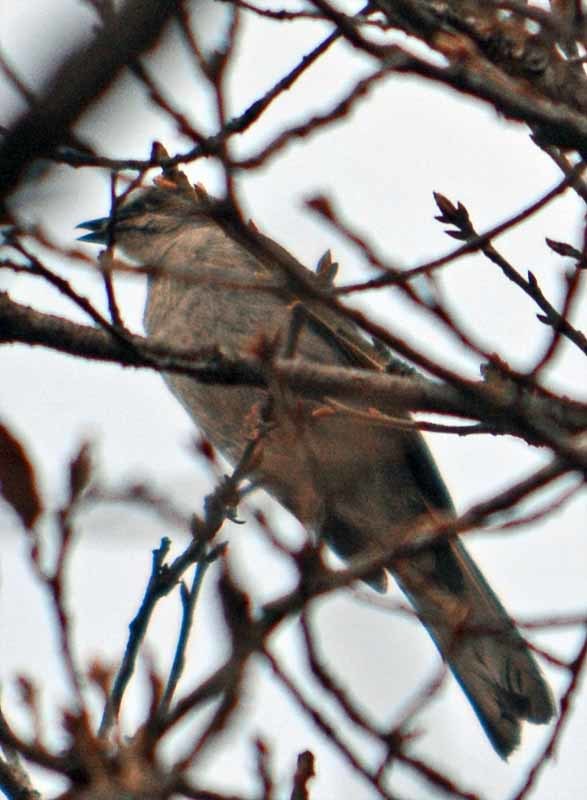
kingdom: Animalia
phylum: Chordata
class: Aves
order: Passeriformes
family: Turdidae
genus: Myadestes
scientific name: Myadestes occidentalis
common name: Brown-backed solitaire
